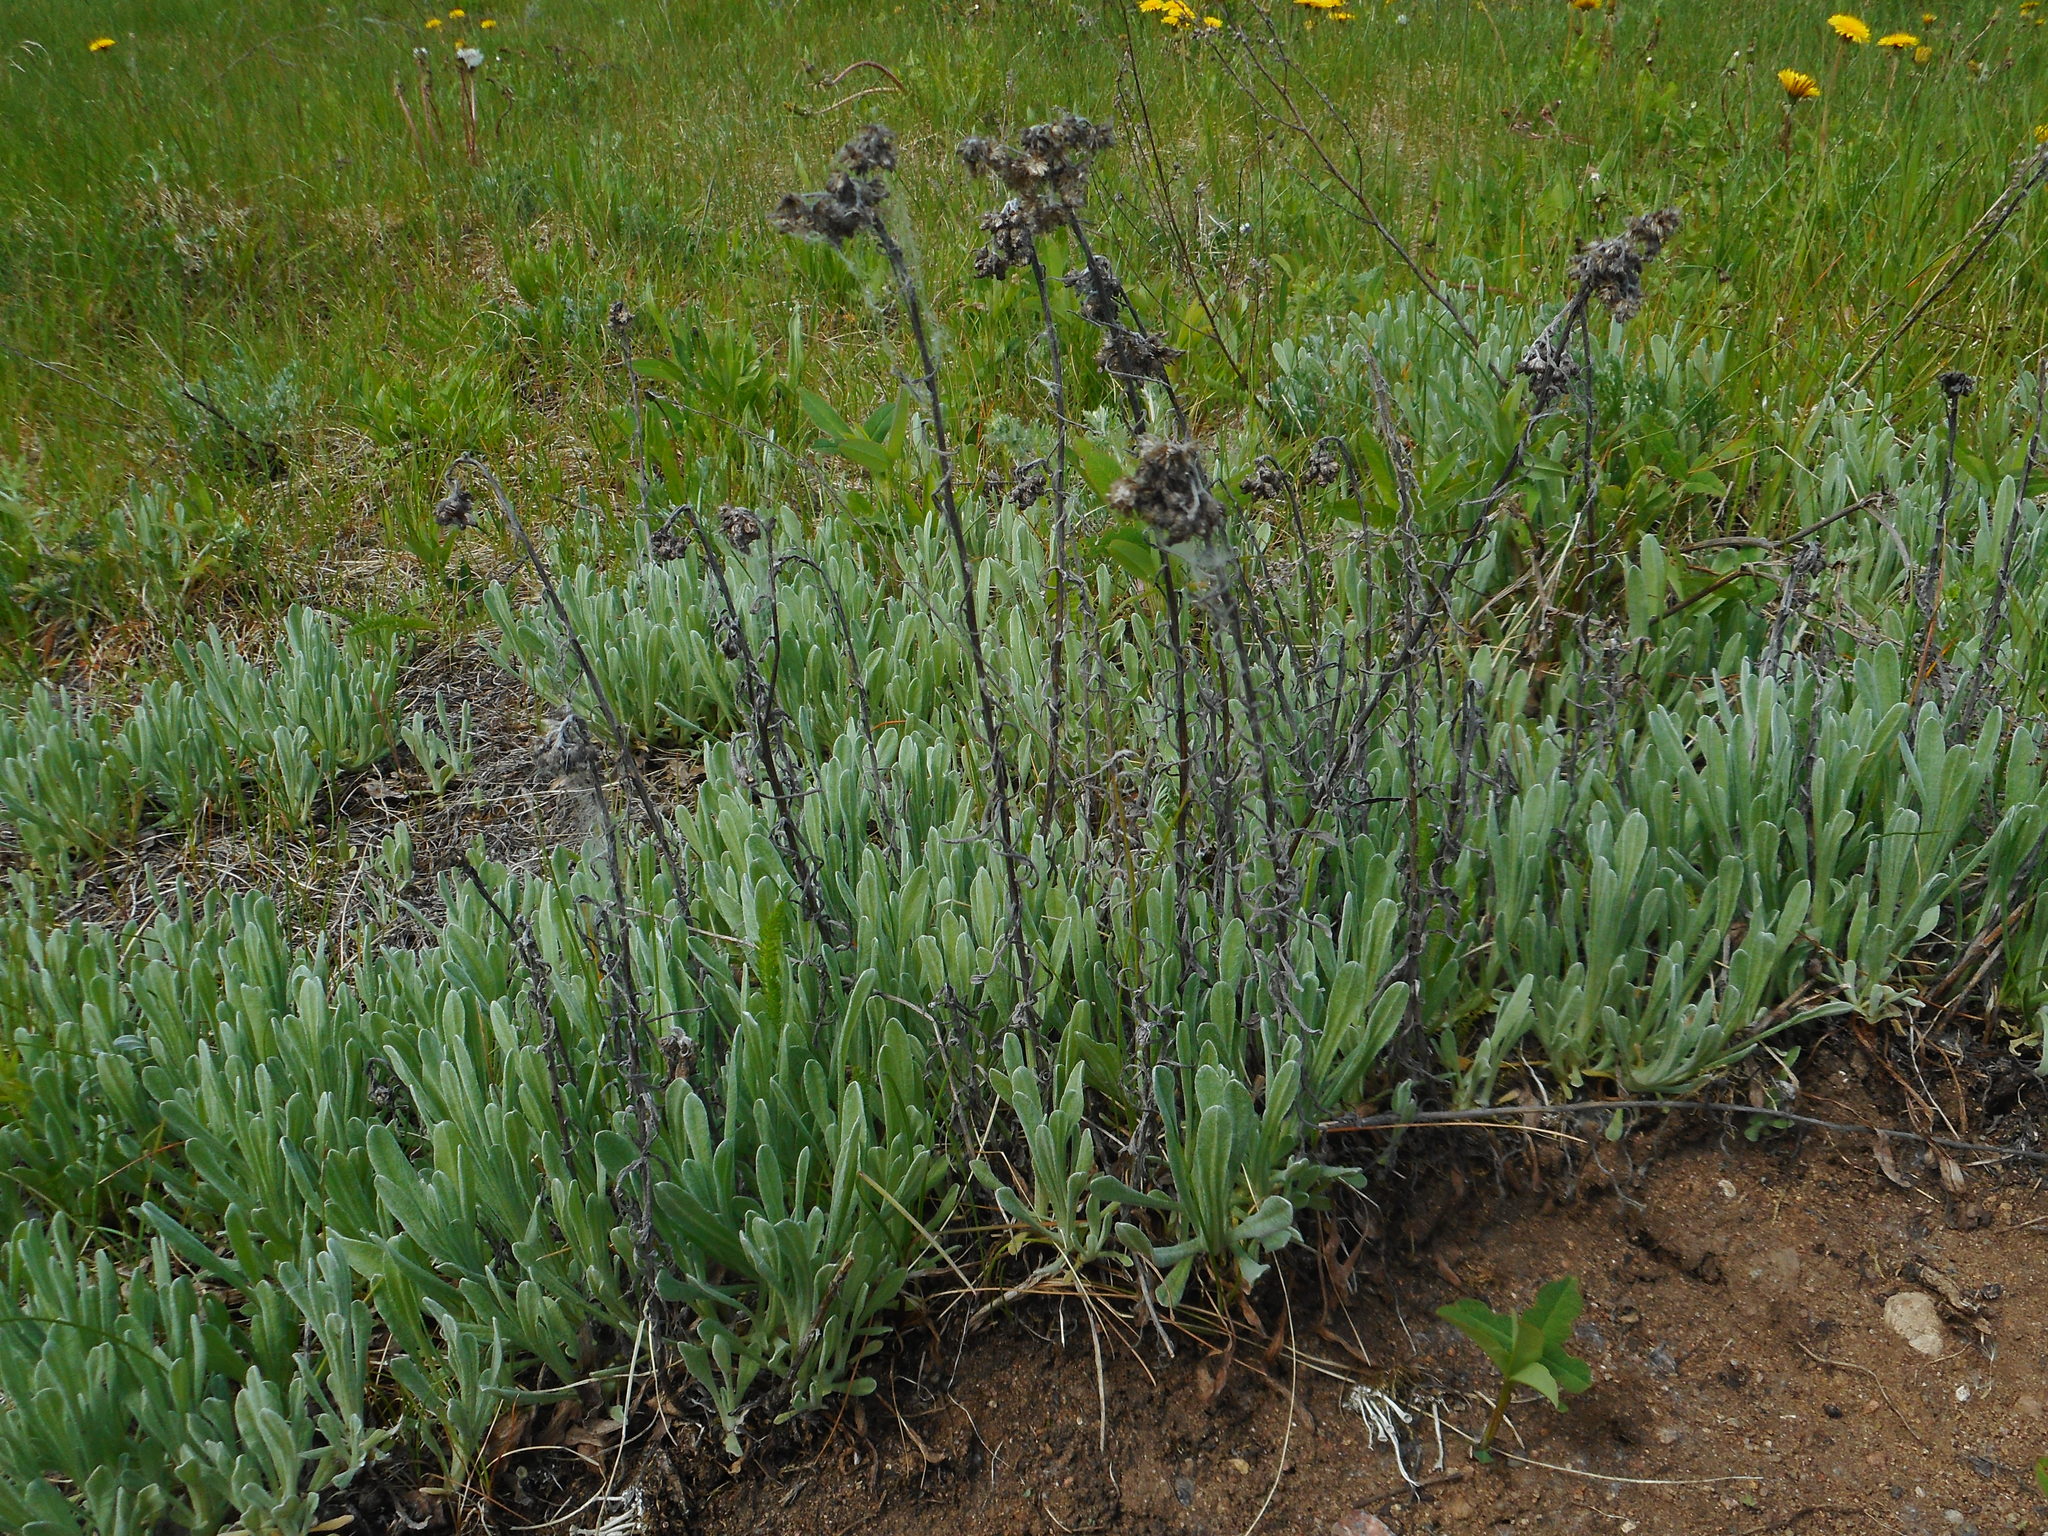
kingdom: Plantae
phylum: Tracheophyta
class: Magnoliopsida
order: Asterales
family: Asteraceae
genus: Helichrysum
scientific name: Helichrysum arenarium
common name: Strawflower
